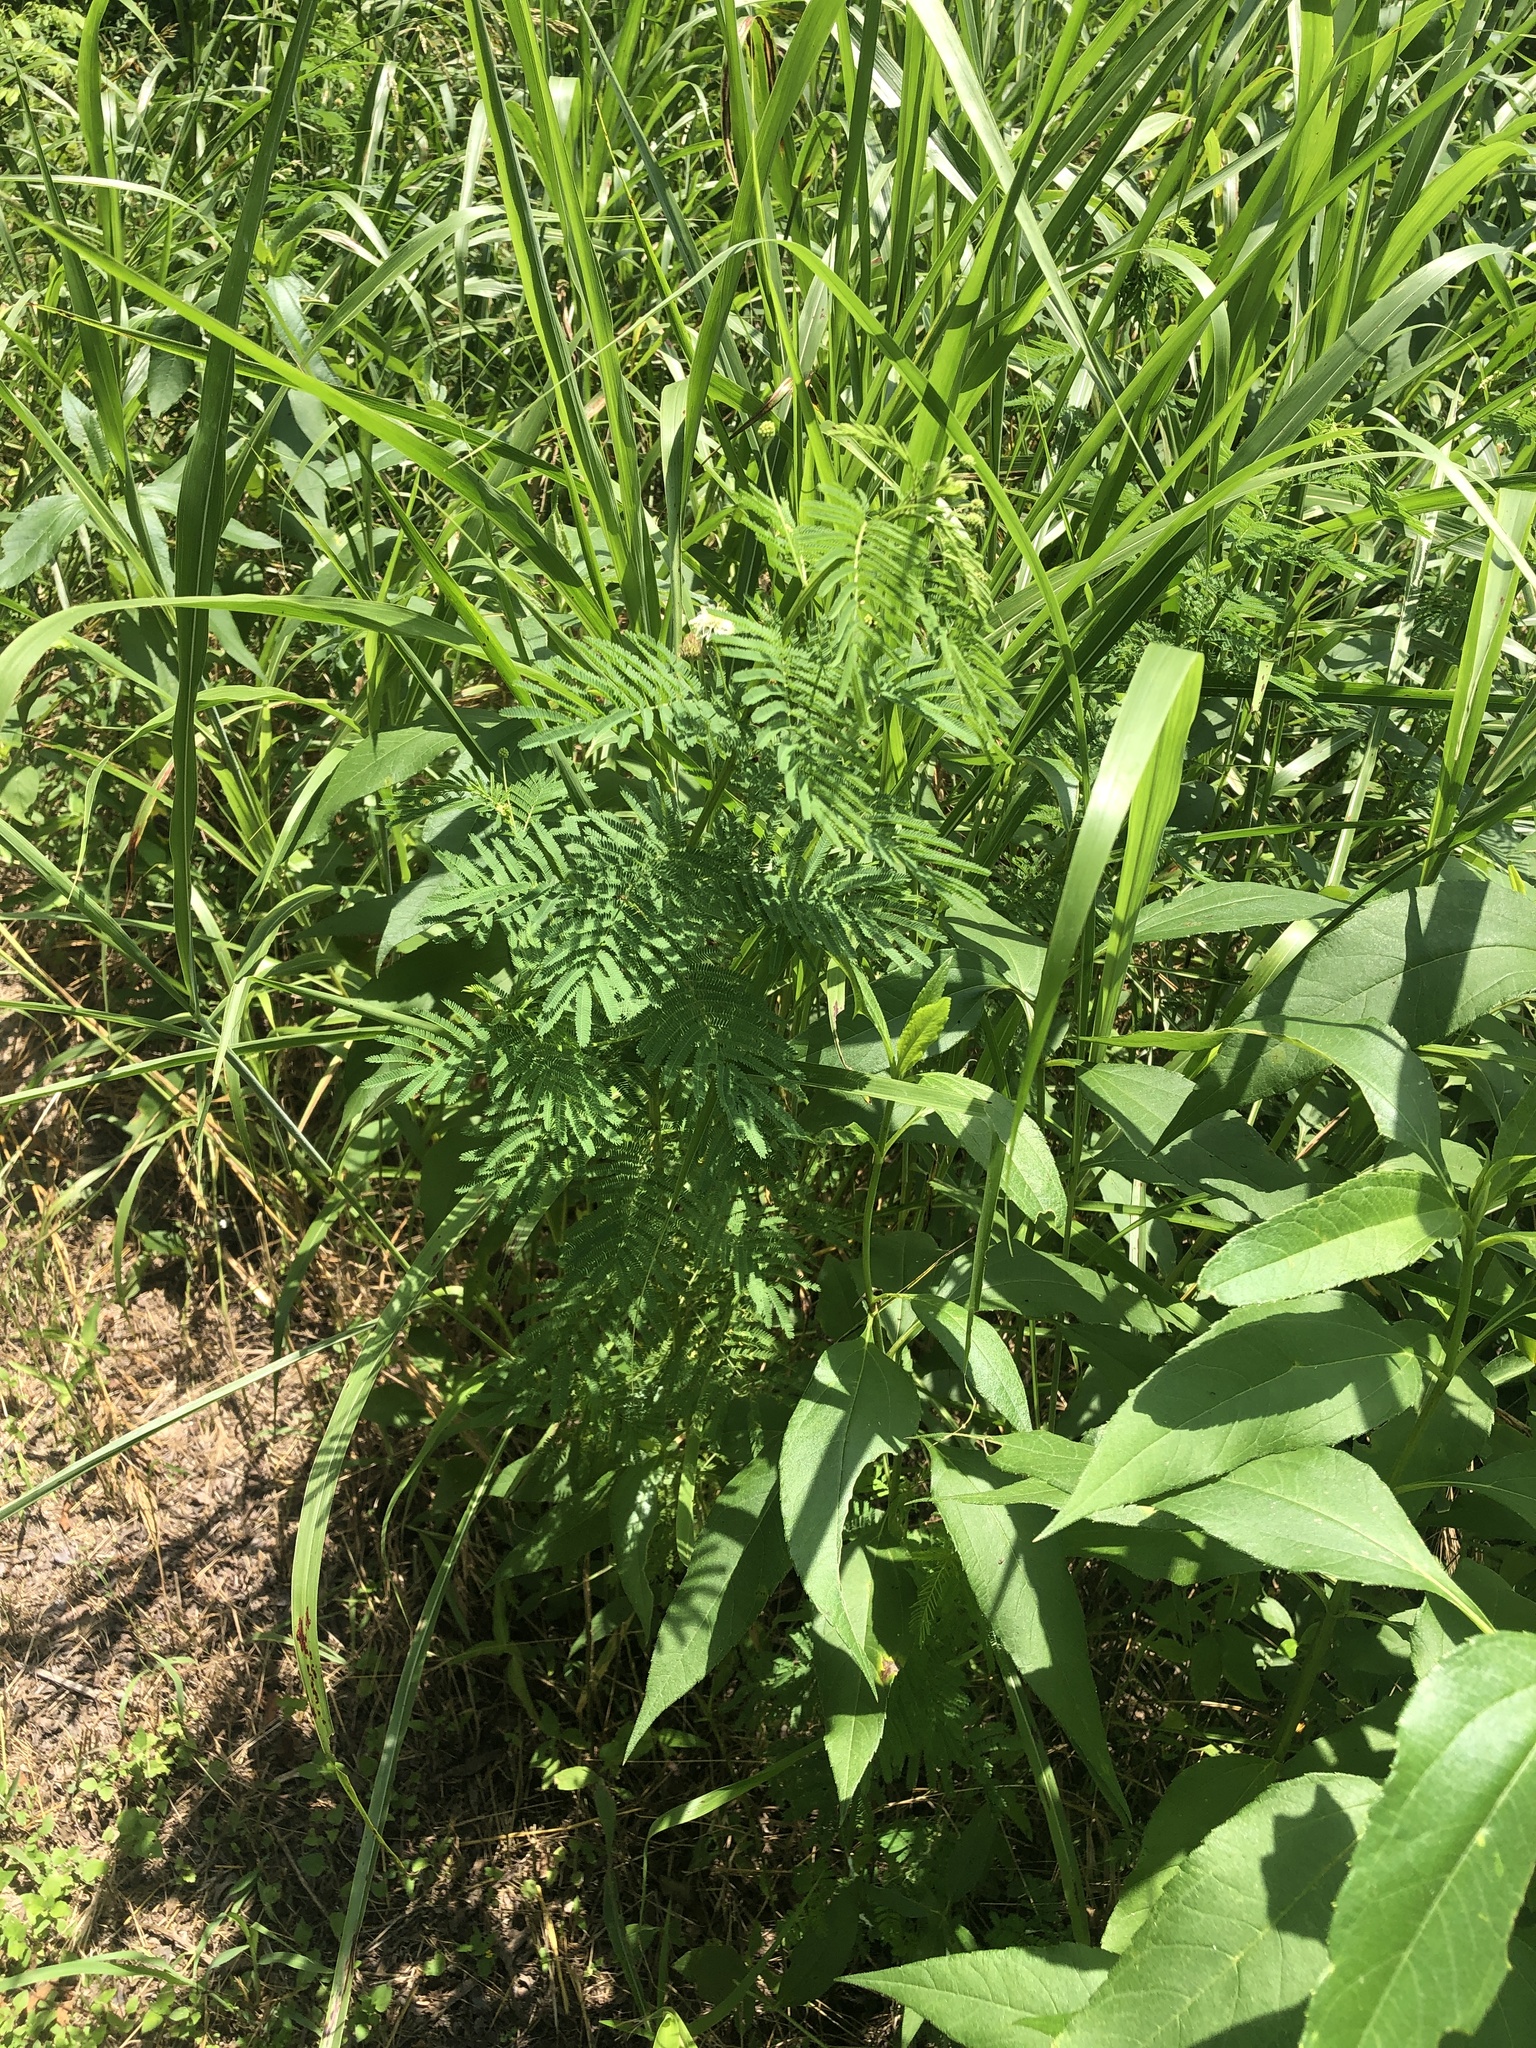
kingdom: Plantae
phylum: Tracheophyta
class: Magnoliopsida
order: Fabales
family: Fabaceae
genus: Desmanthus
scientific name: Desmanthus illinoensis
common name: Illinois bundle-flower
